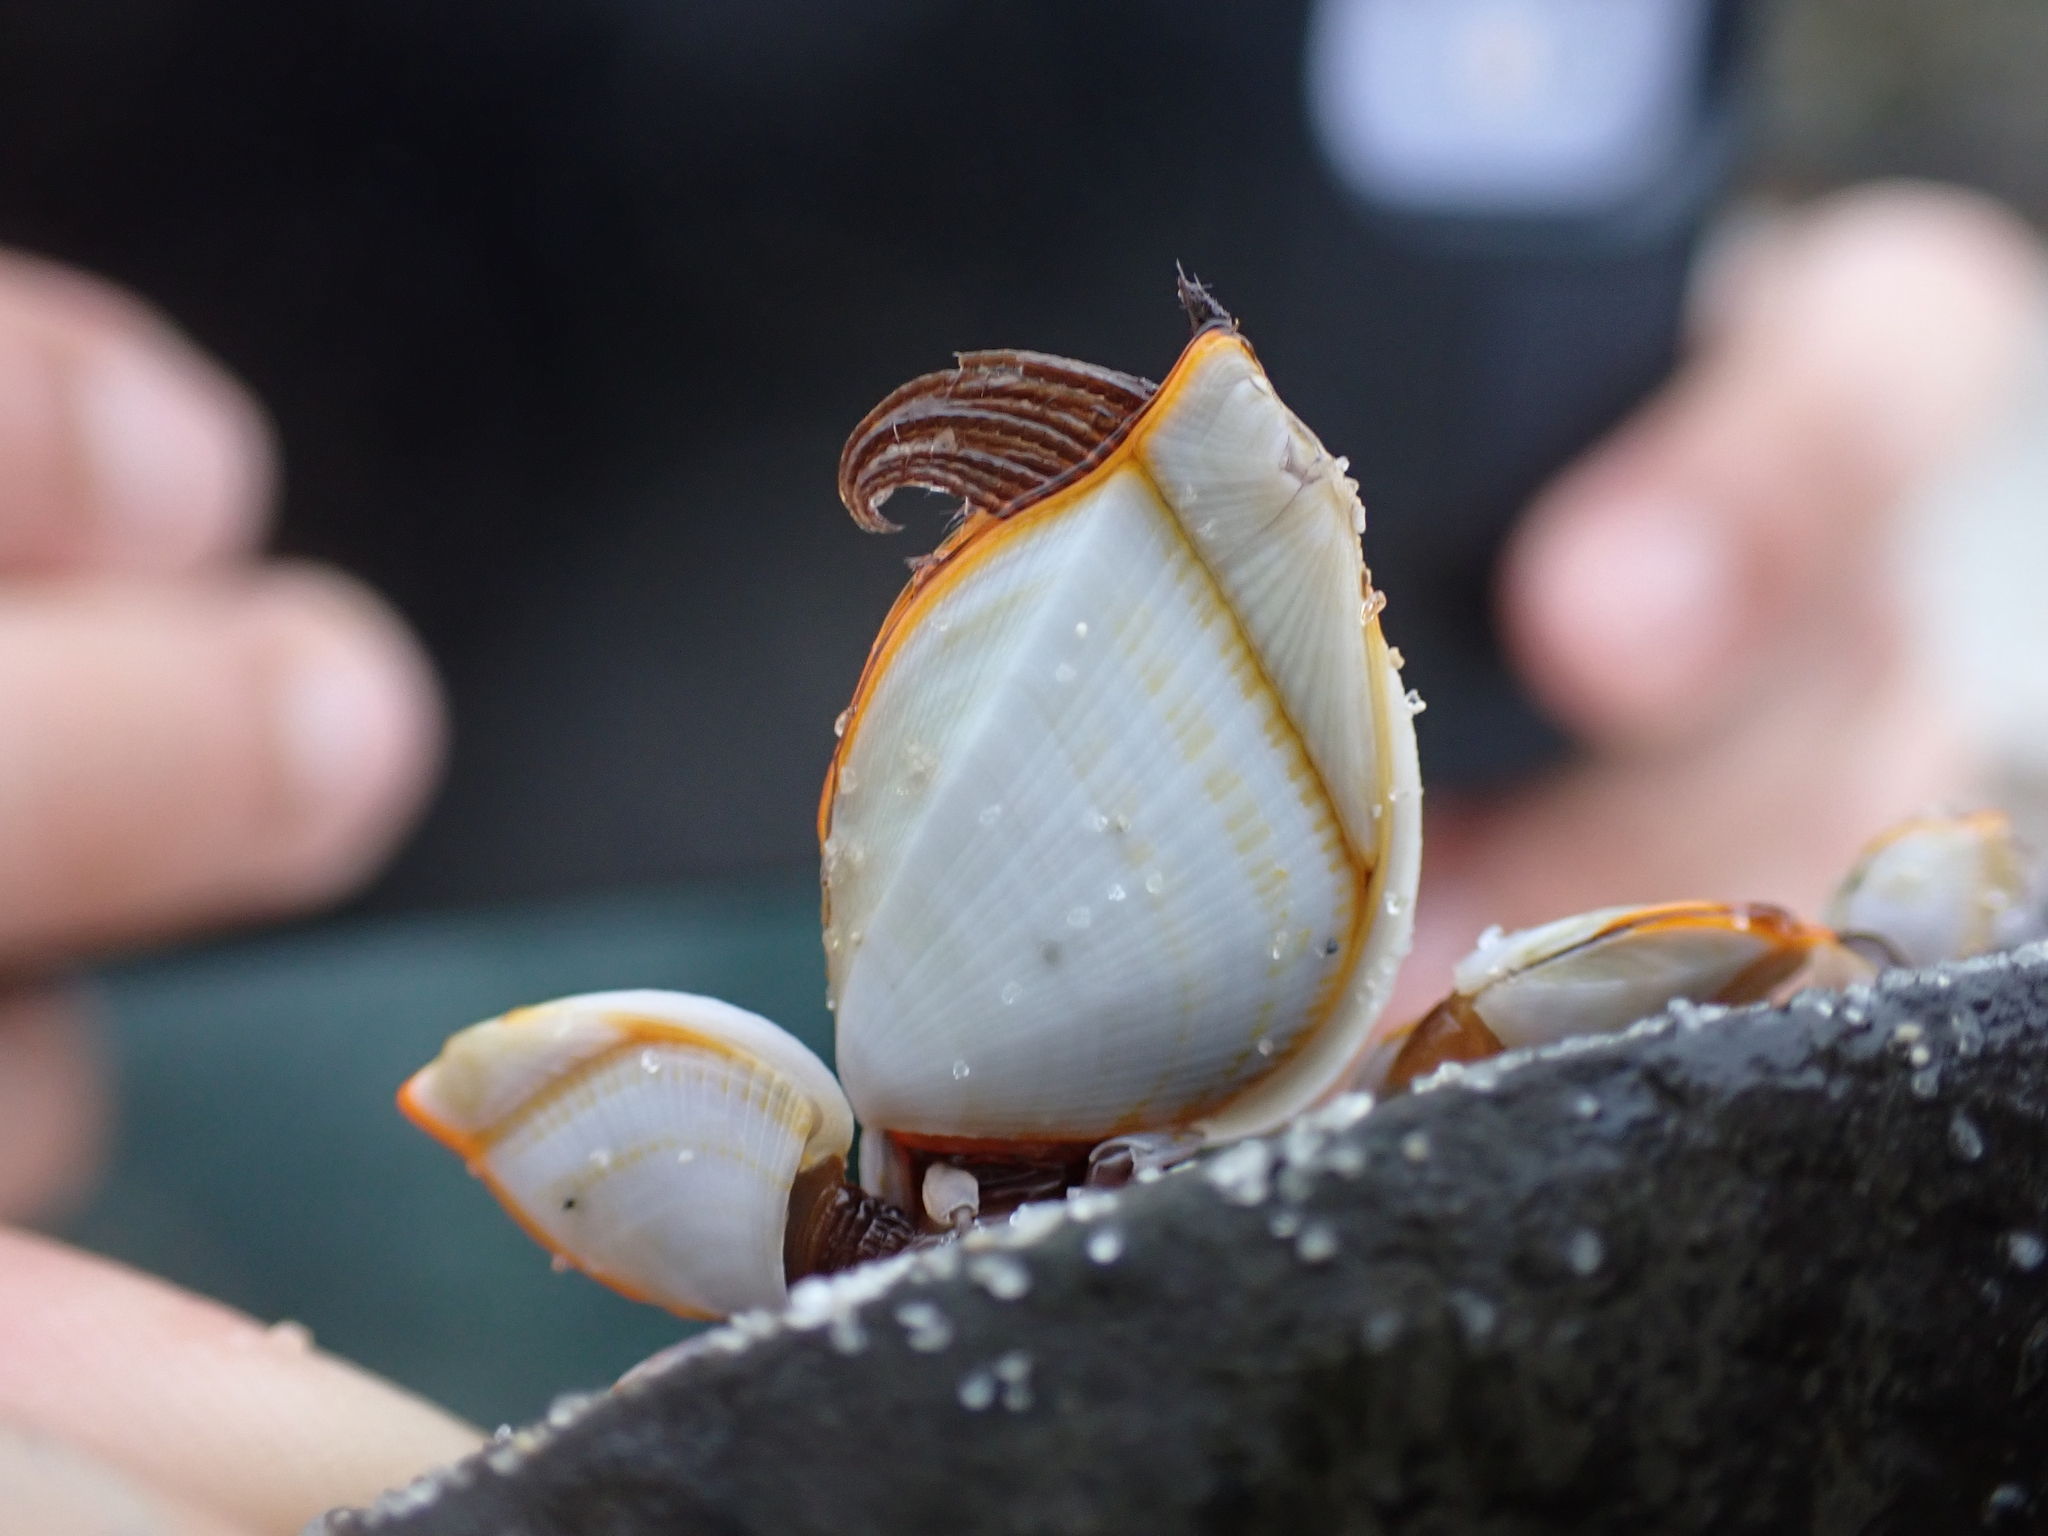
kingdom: Animalia
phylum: Arthropoda
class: Maxillopoda
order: Pedunculata
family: Lepadidae
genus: Lepas
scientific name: Lepas anserifera
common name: Goose barnacle
